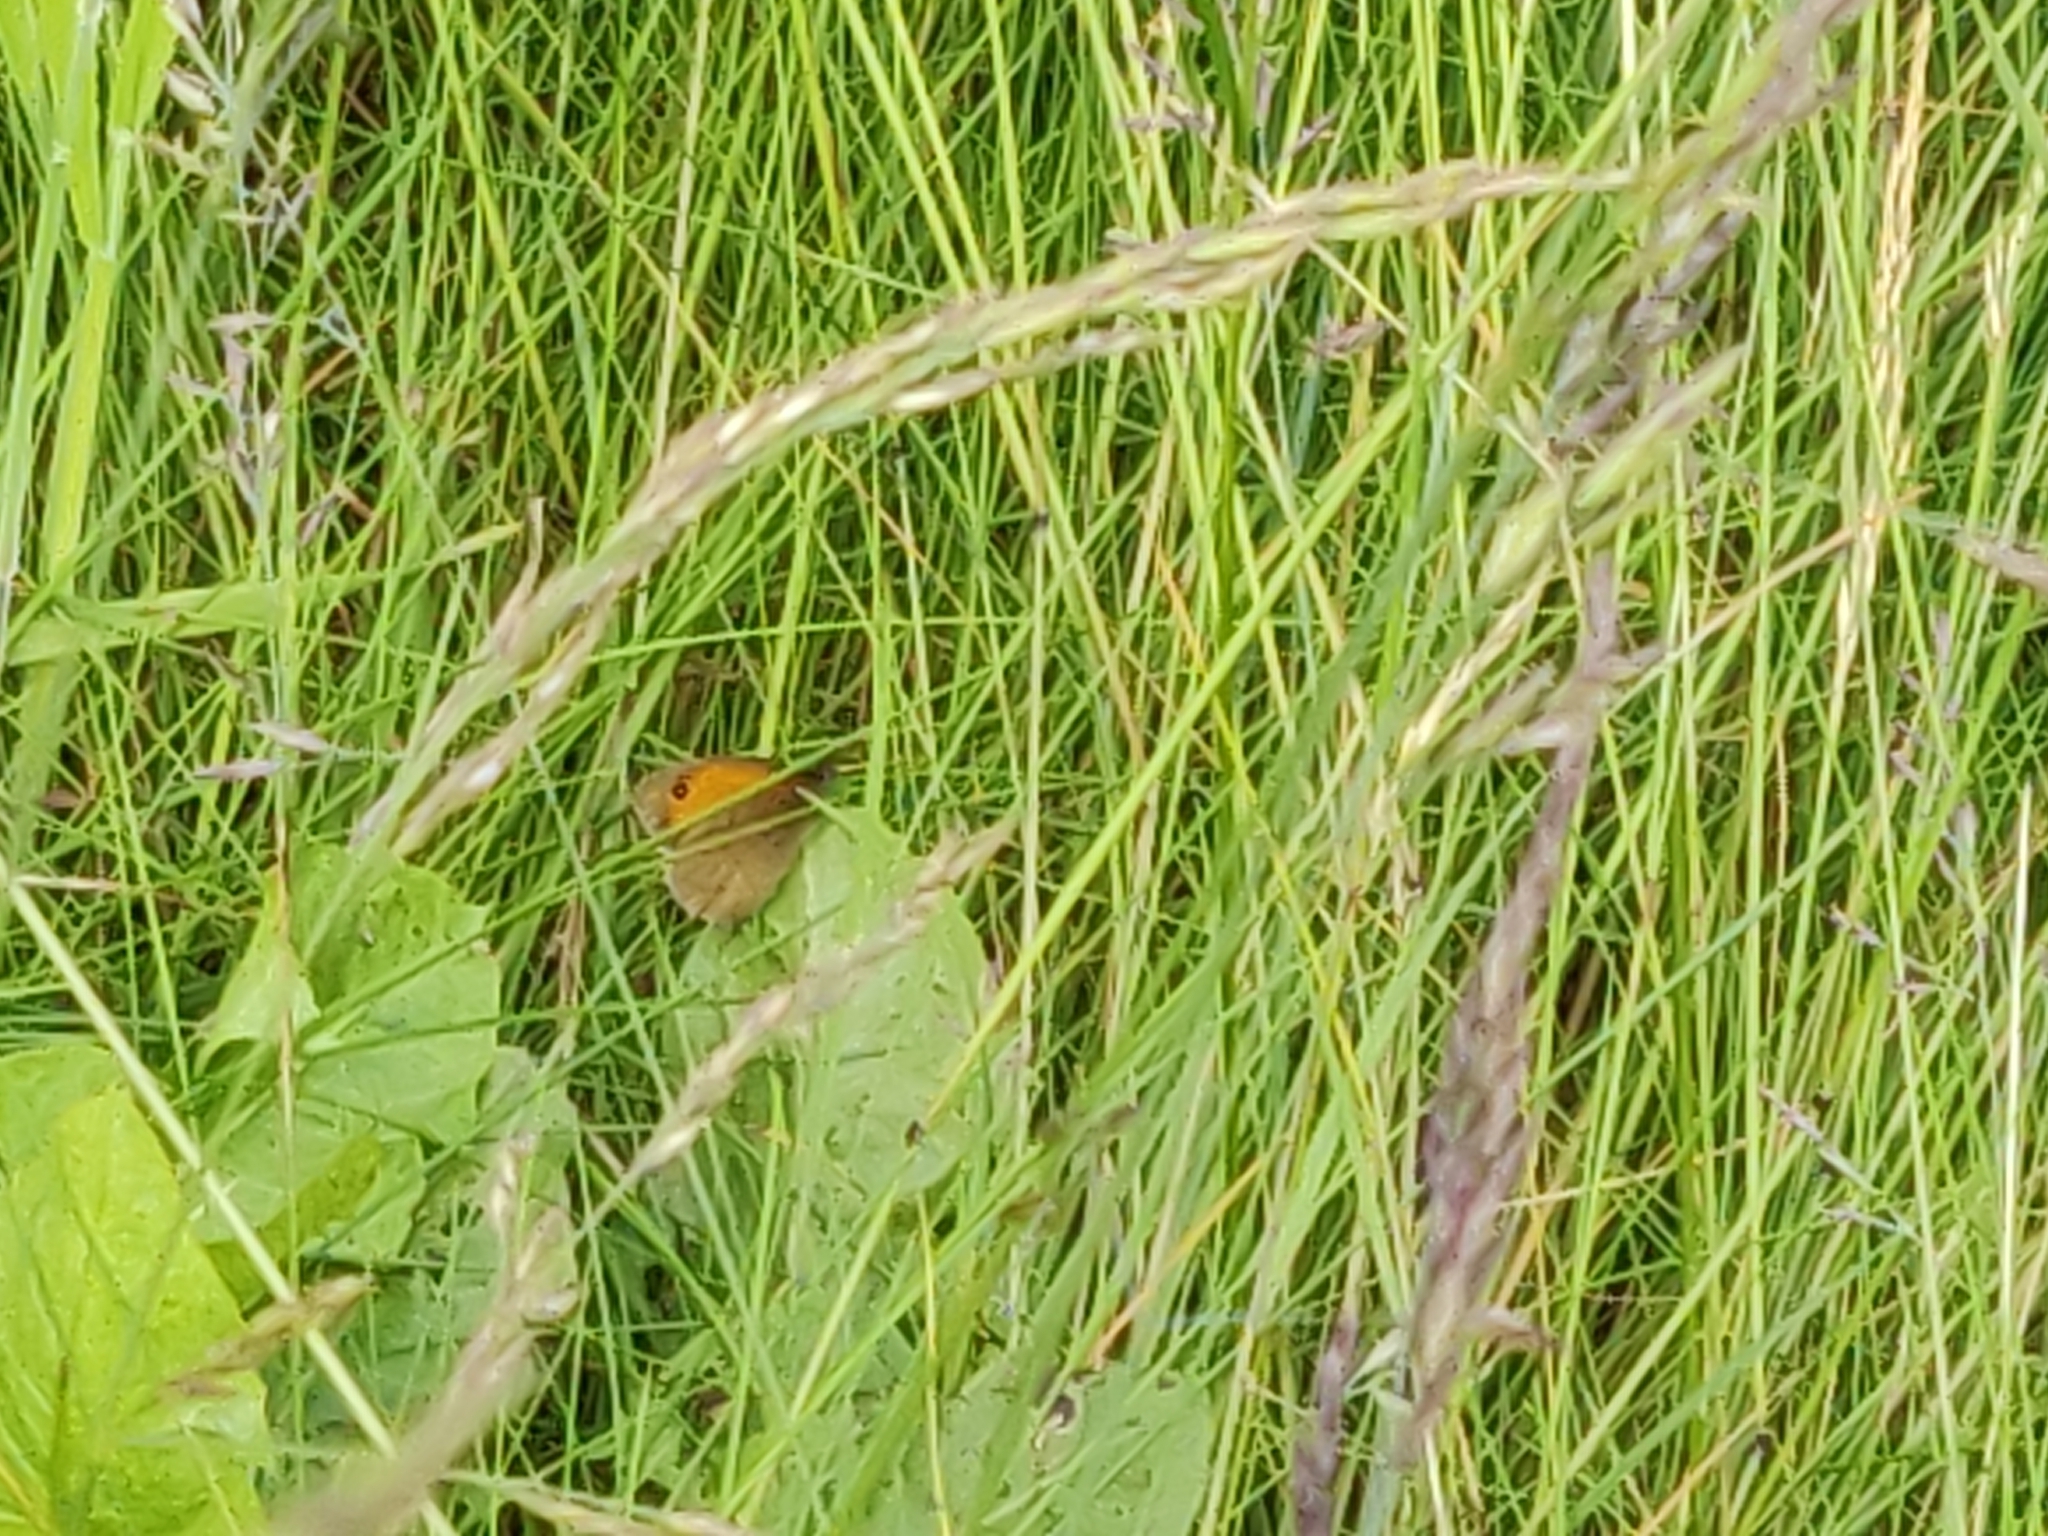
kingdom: Animalia
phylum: Arthropoda
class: Insecta
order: Lepidoptera
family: Nymphalidae
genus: Maniola
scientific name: Maniola jurtina
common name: Meadow brown
